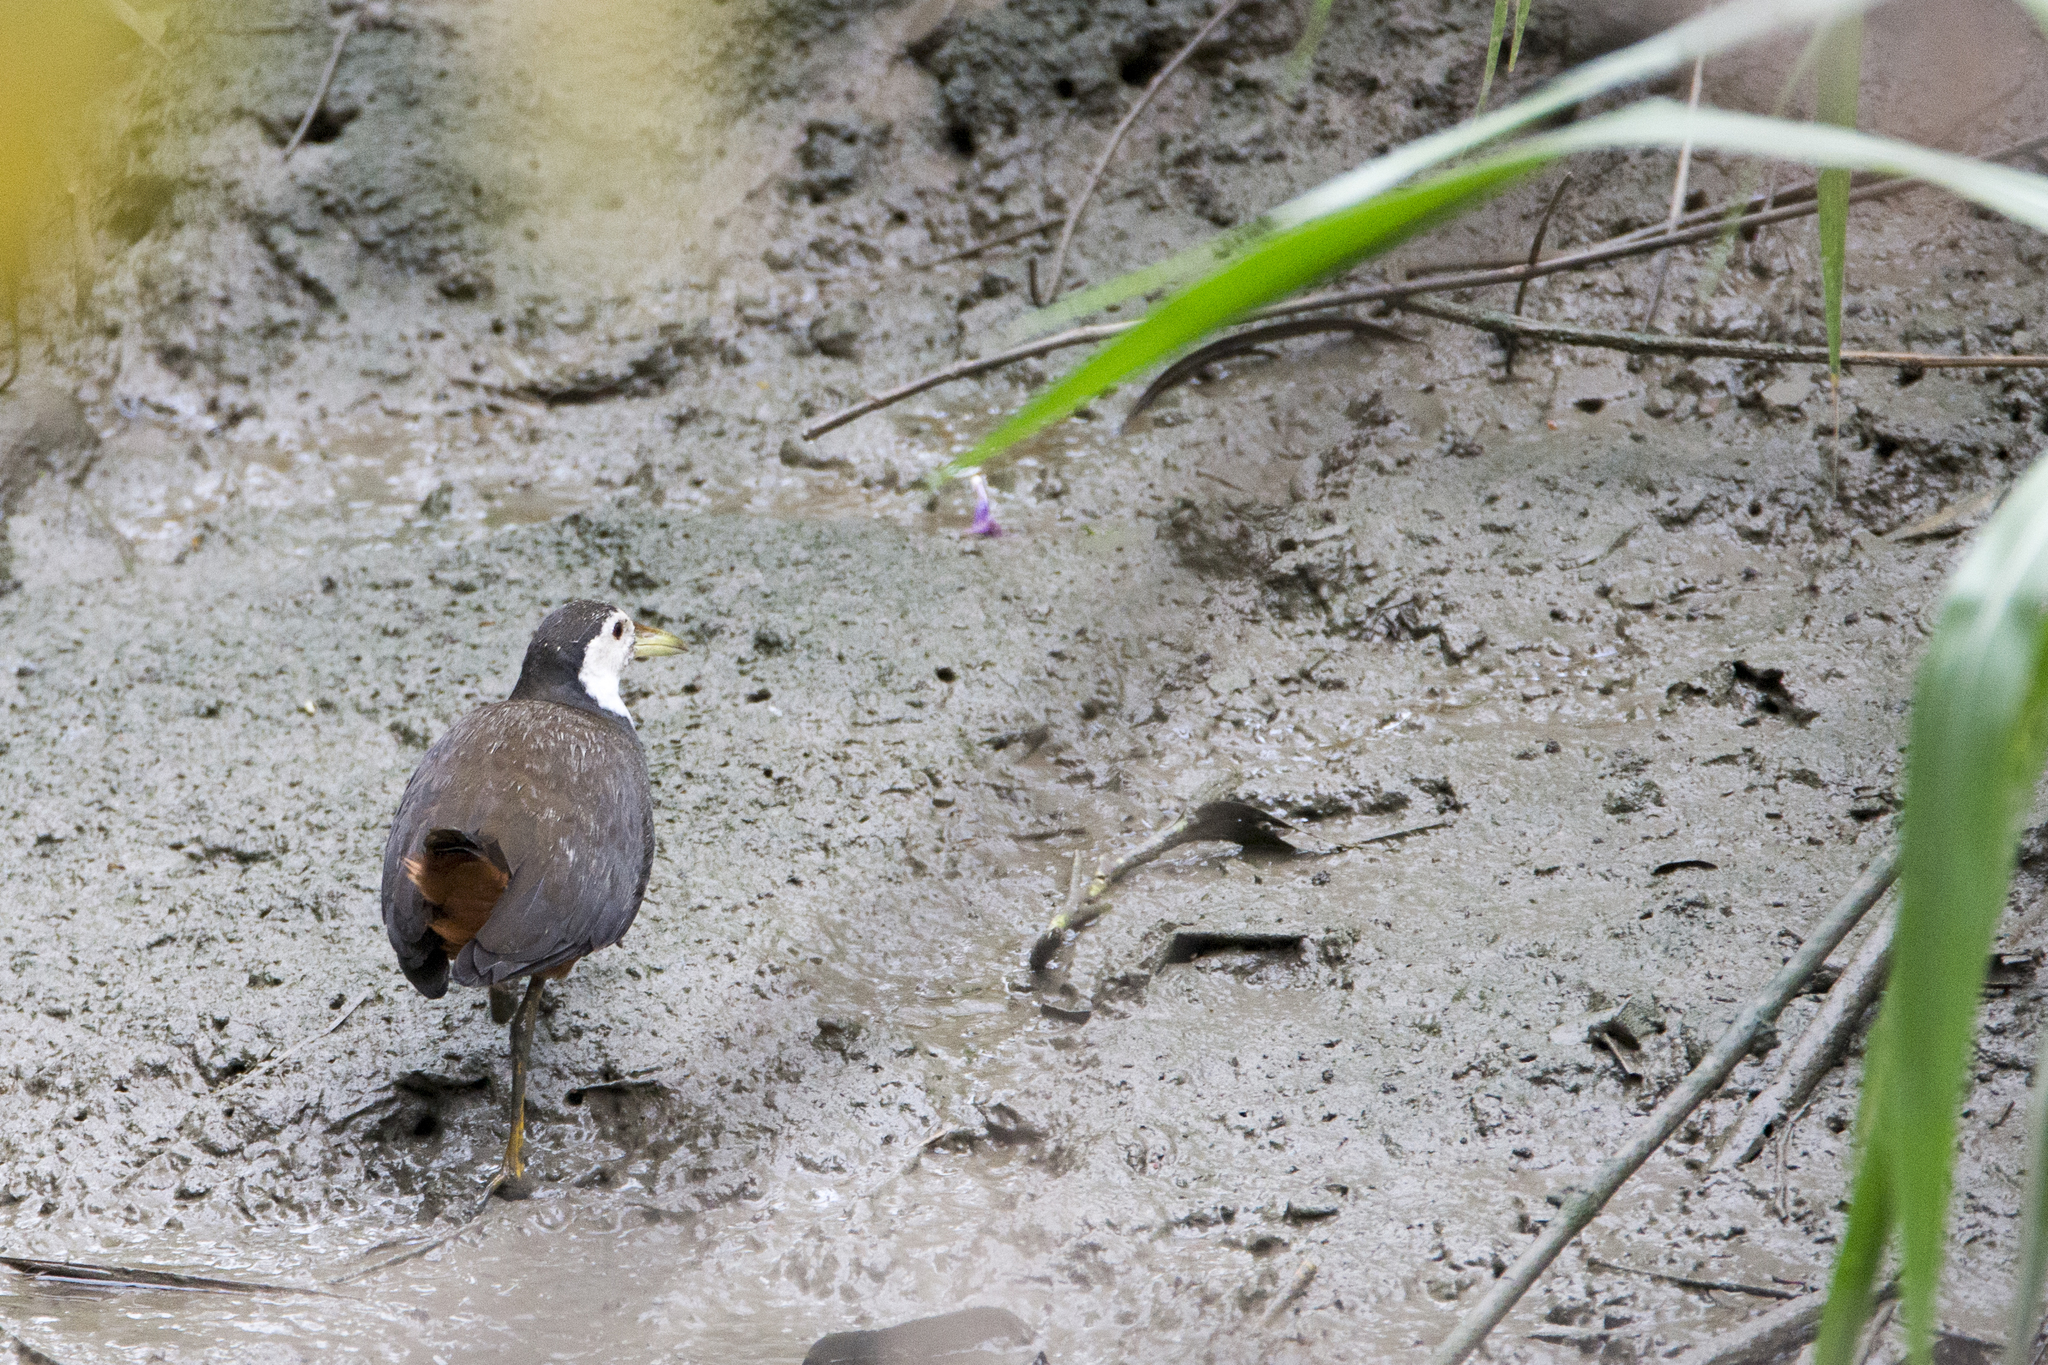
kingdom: Animalia
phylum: Chordata
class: Aves
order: Gruiformes
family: Rallidae
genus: Amaurornis
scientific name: Amaurornis phoenicurus
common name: White-breasted waterhen
